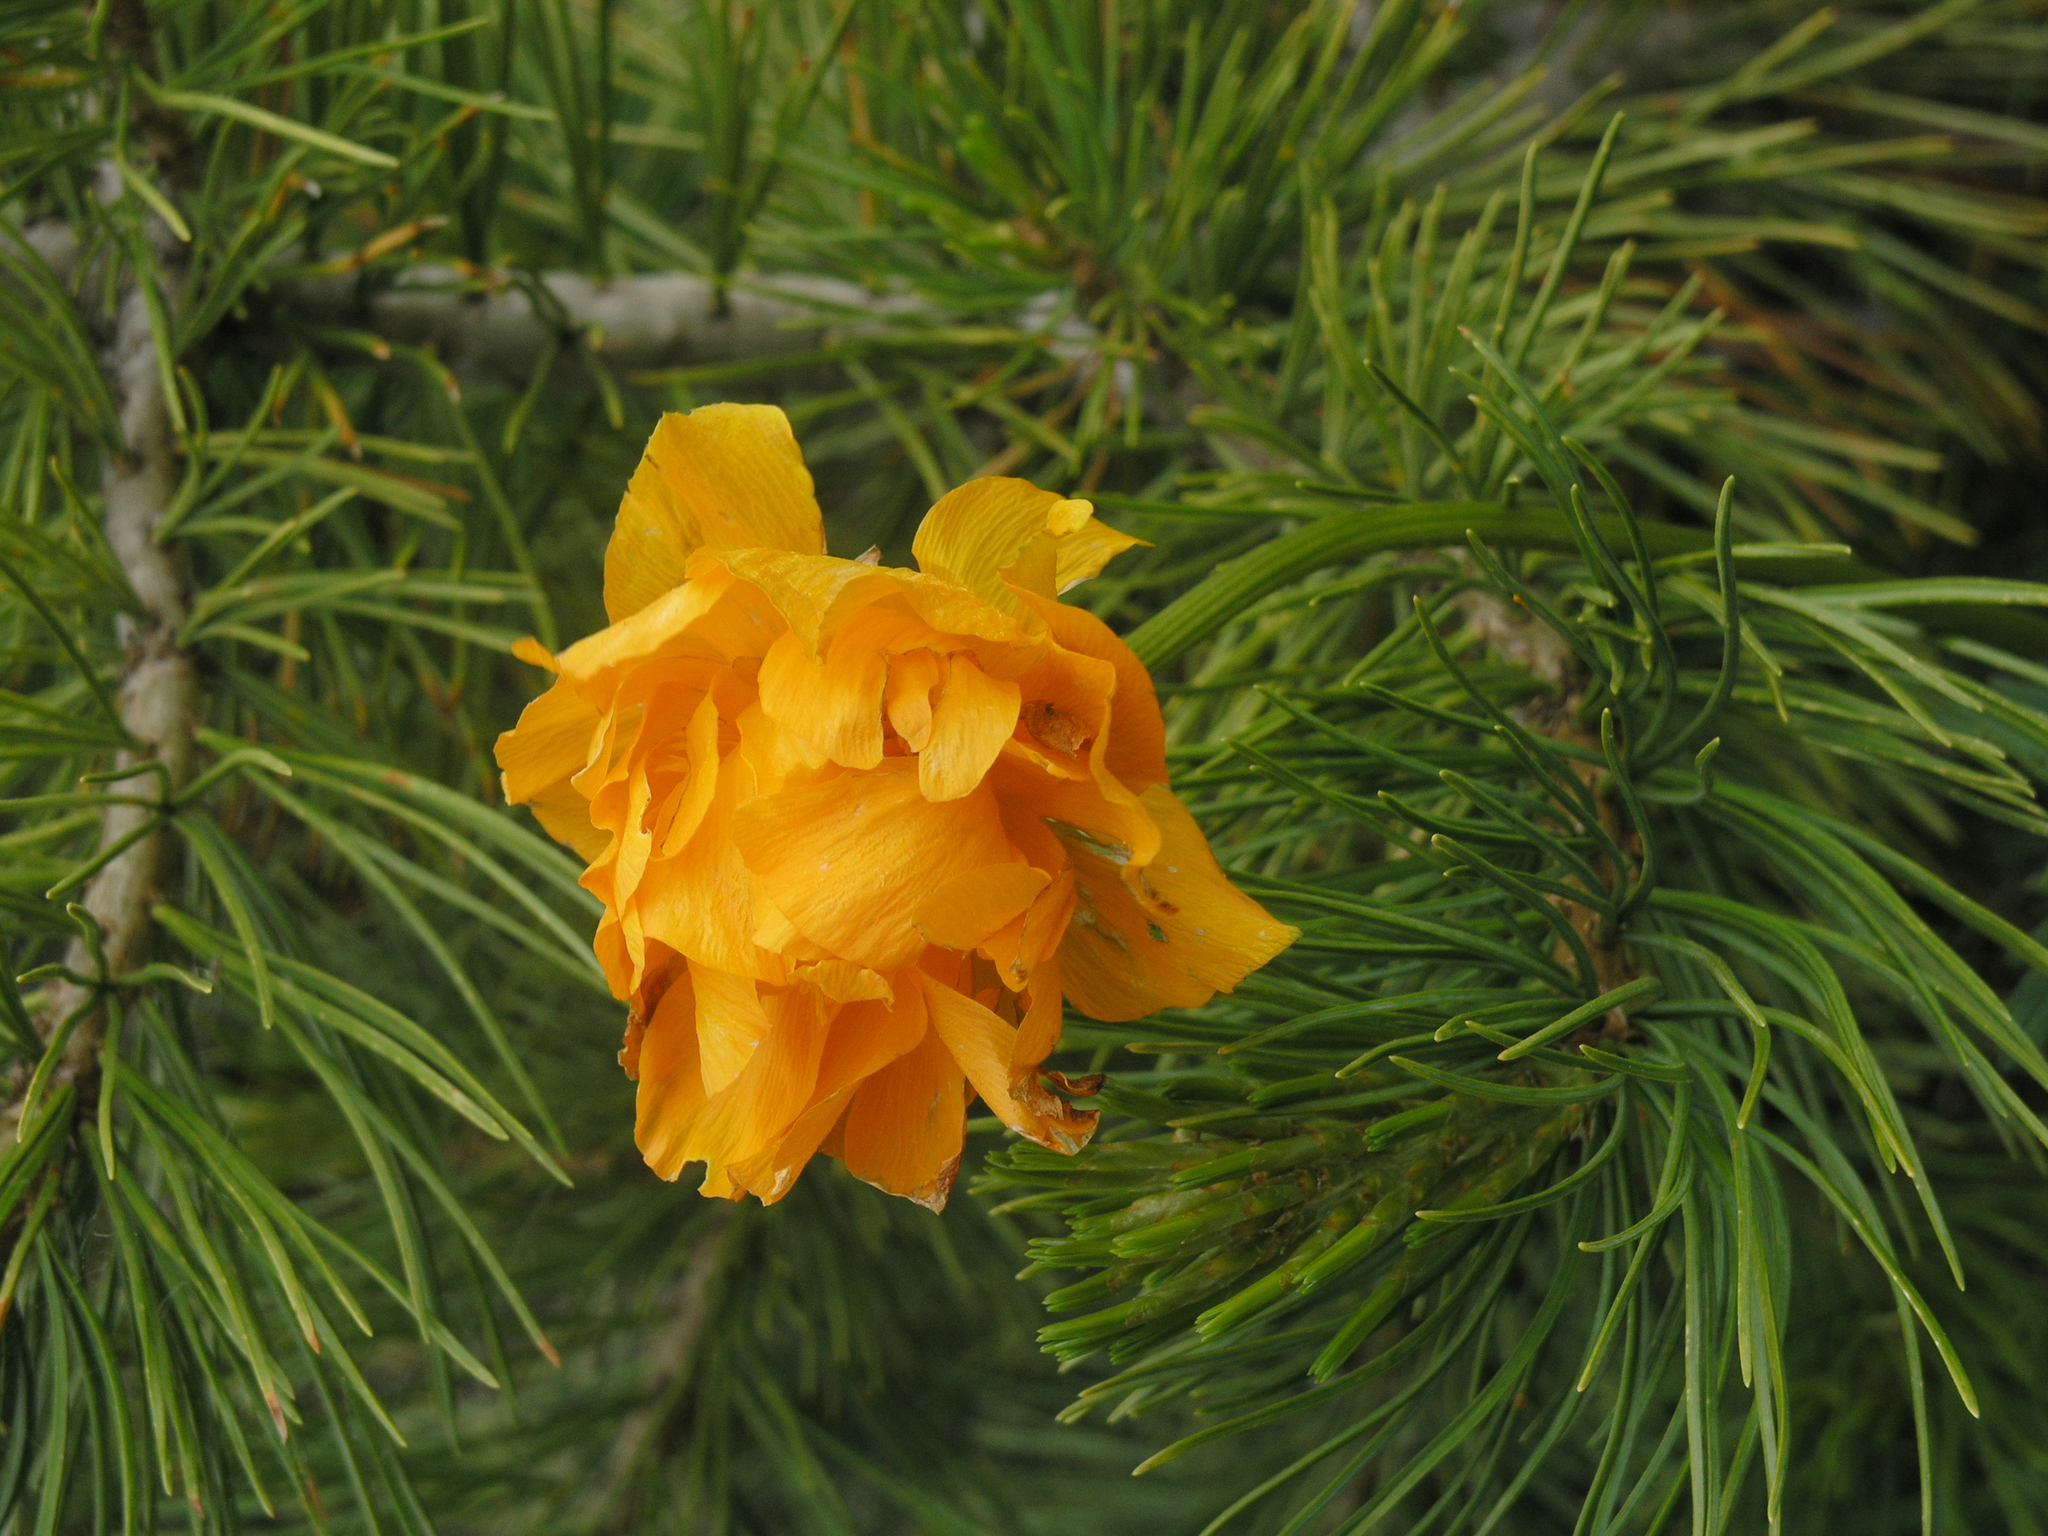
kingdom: Plantae
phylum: Tracheophyta
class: Pinopsida
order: Pinales
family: Pinaceae
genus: Pinus
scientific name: Pinus sibirica
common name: Siberian pine
